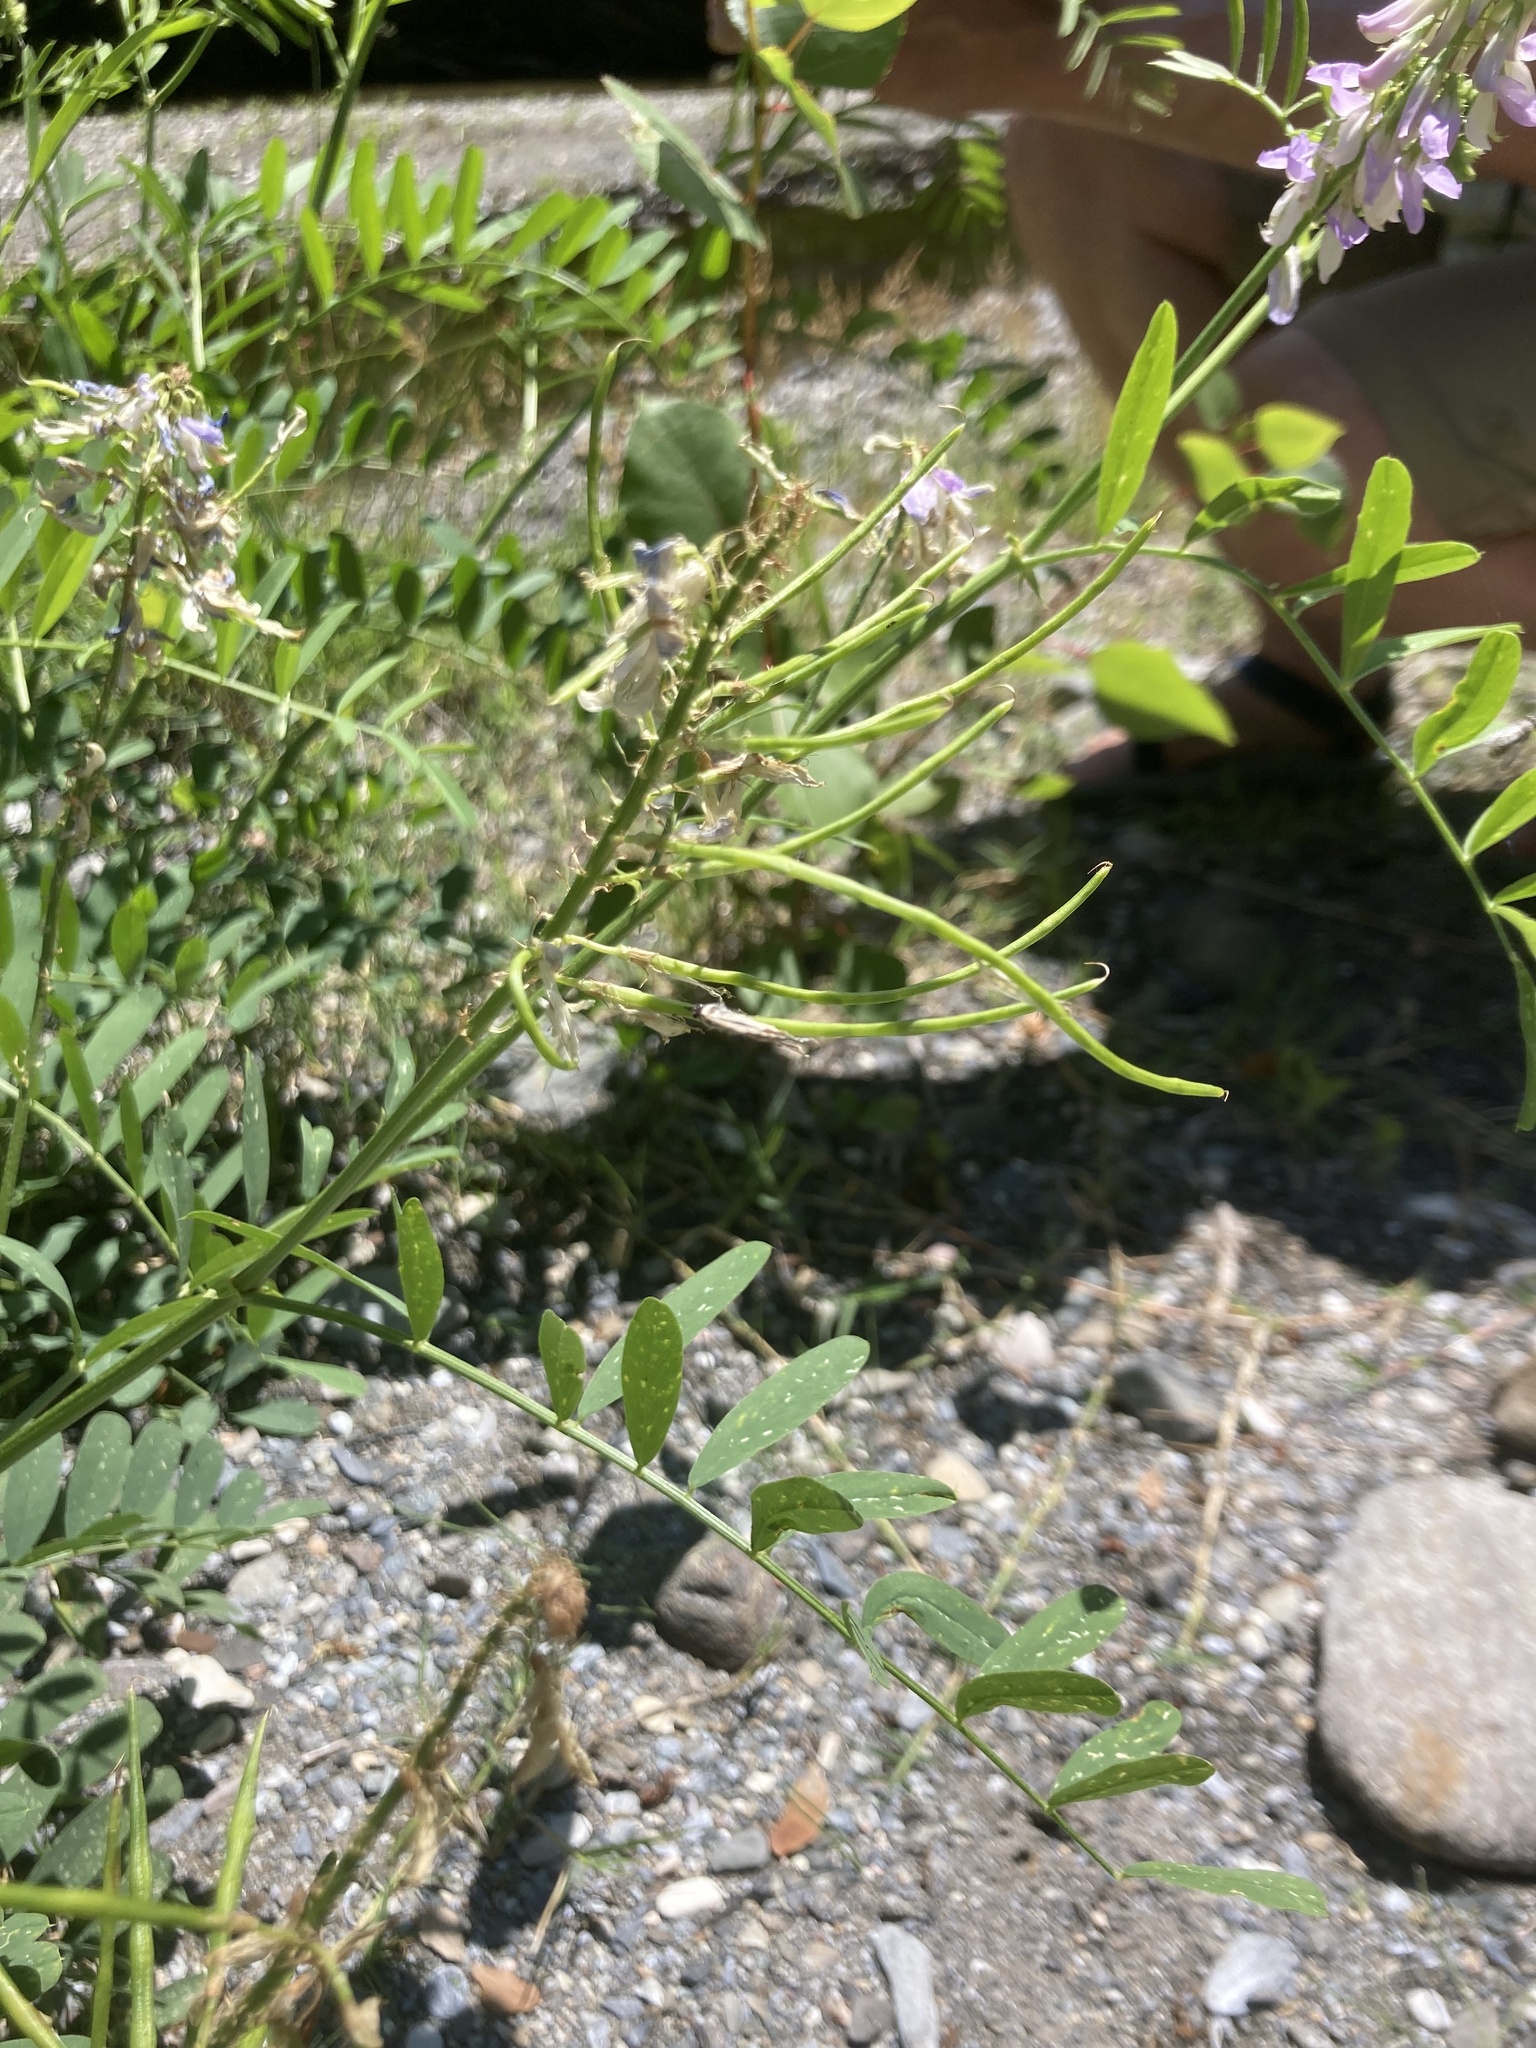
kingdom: Plantae
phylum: Tracheophyta
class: Magnoliopsida
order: Fabales
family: Fabaceae
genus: Galega
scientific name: Galega officinalis
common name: Goat's-rue
